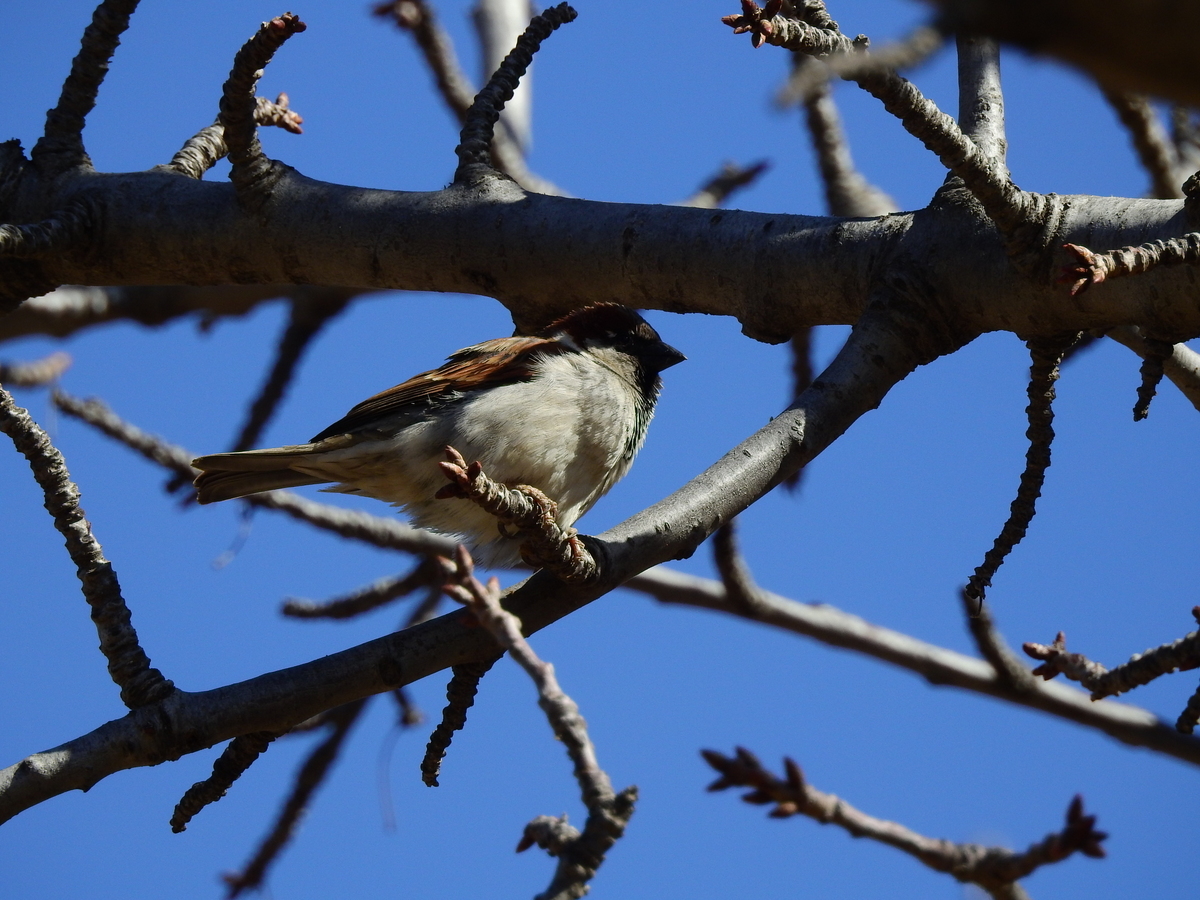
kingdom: Animalia
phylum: Chordata
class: Aves
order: Passeriformes
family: Passeridae
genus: Passer
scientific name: Passer domesticus
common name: House sparrow
